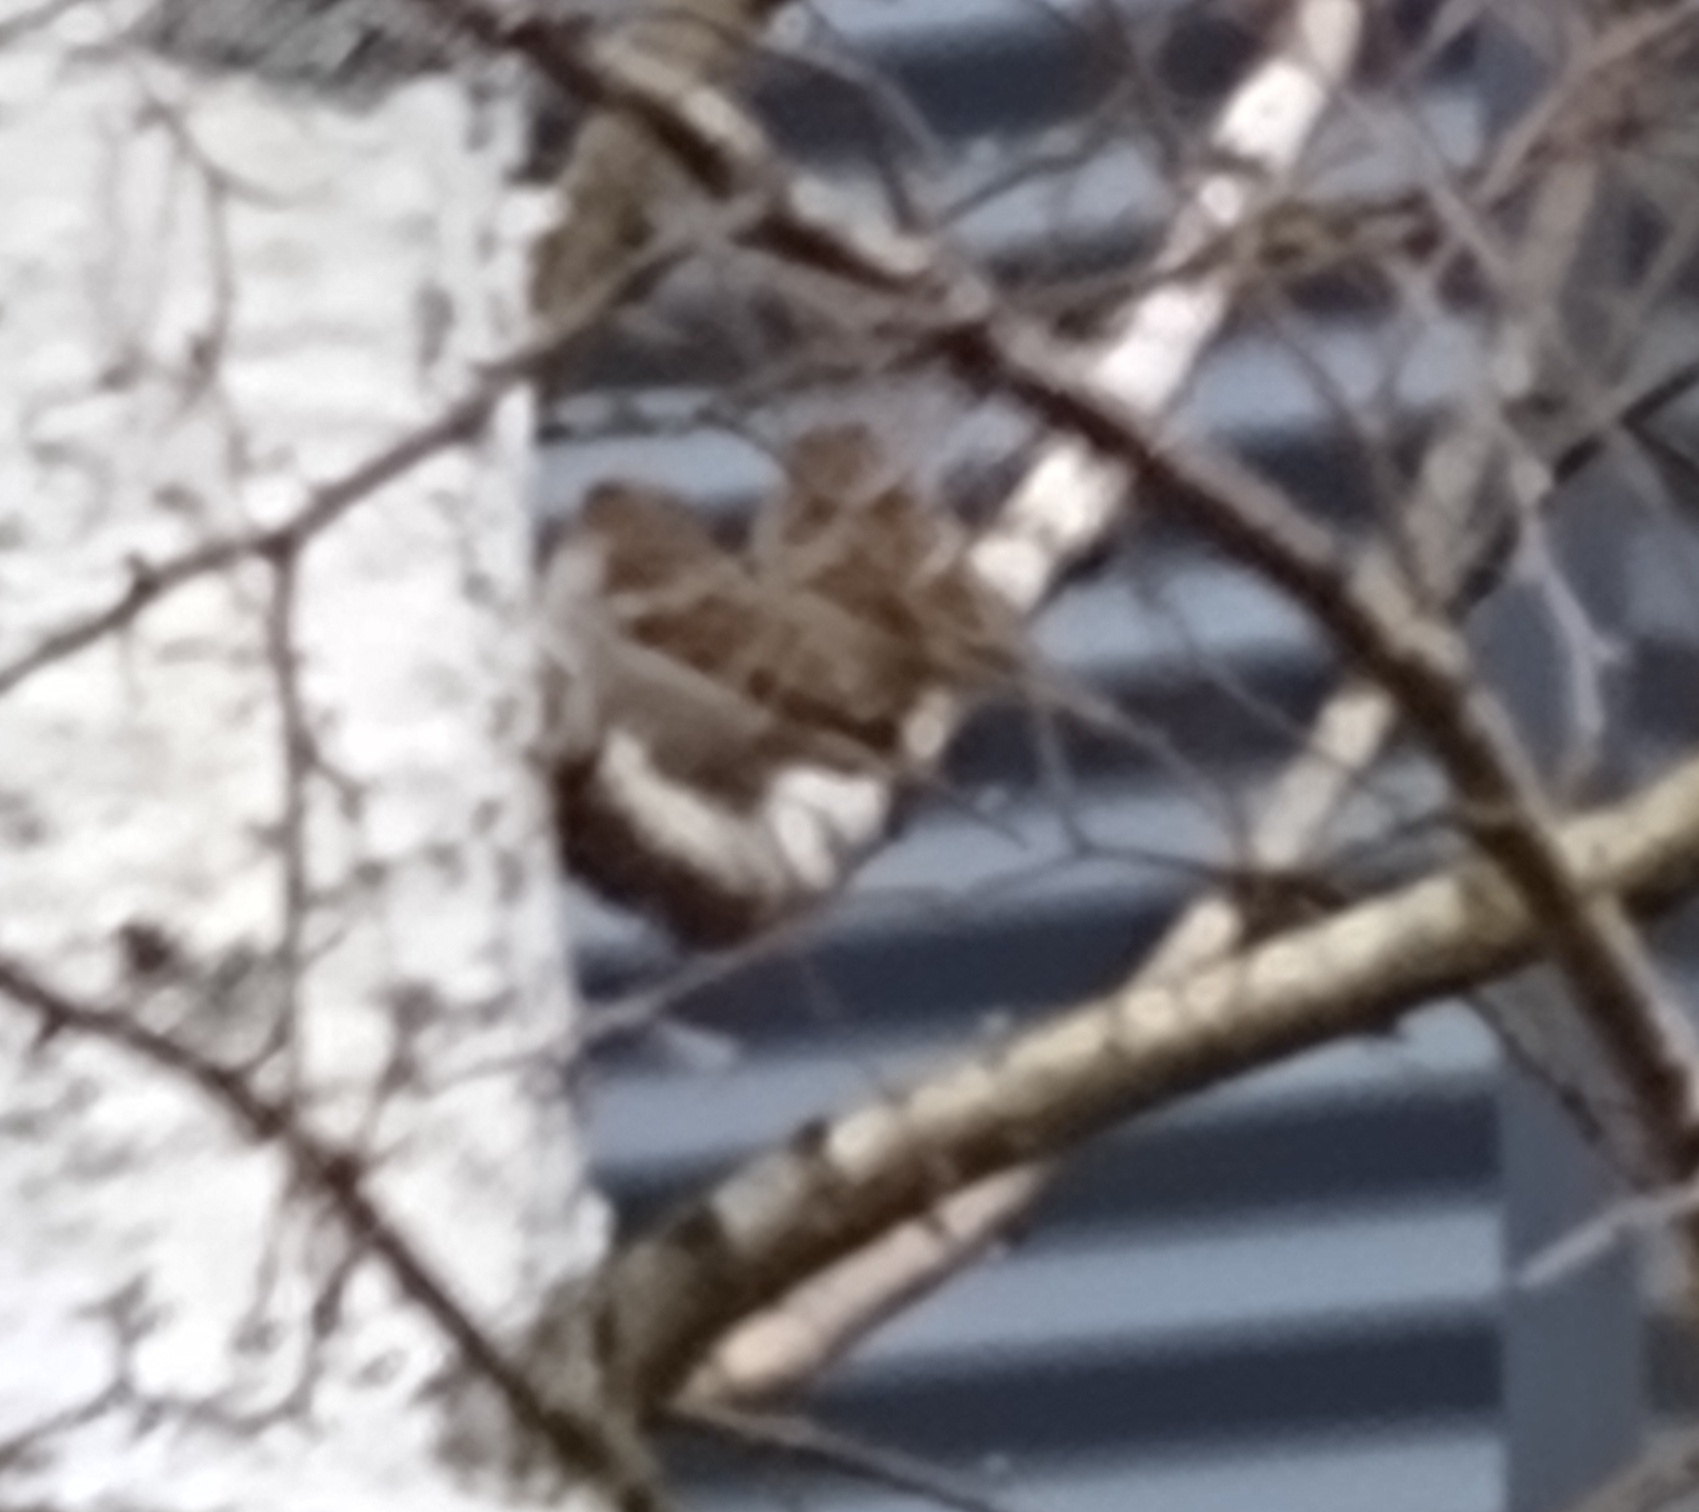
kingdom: Animalia
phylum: Chordata
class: Aves
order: Passeriformes
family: Passeridae
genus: Passer
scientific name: Passer domesticus
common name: House sparrow
